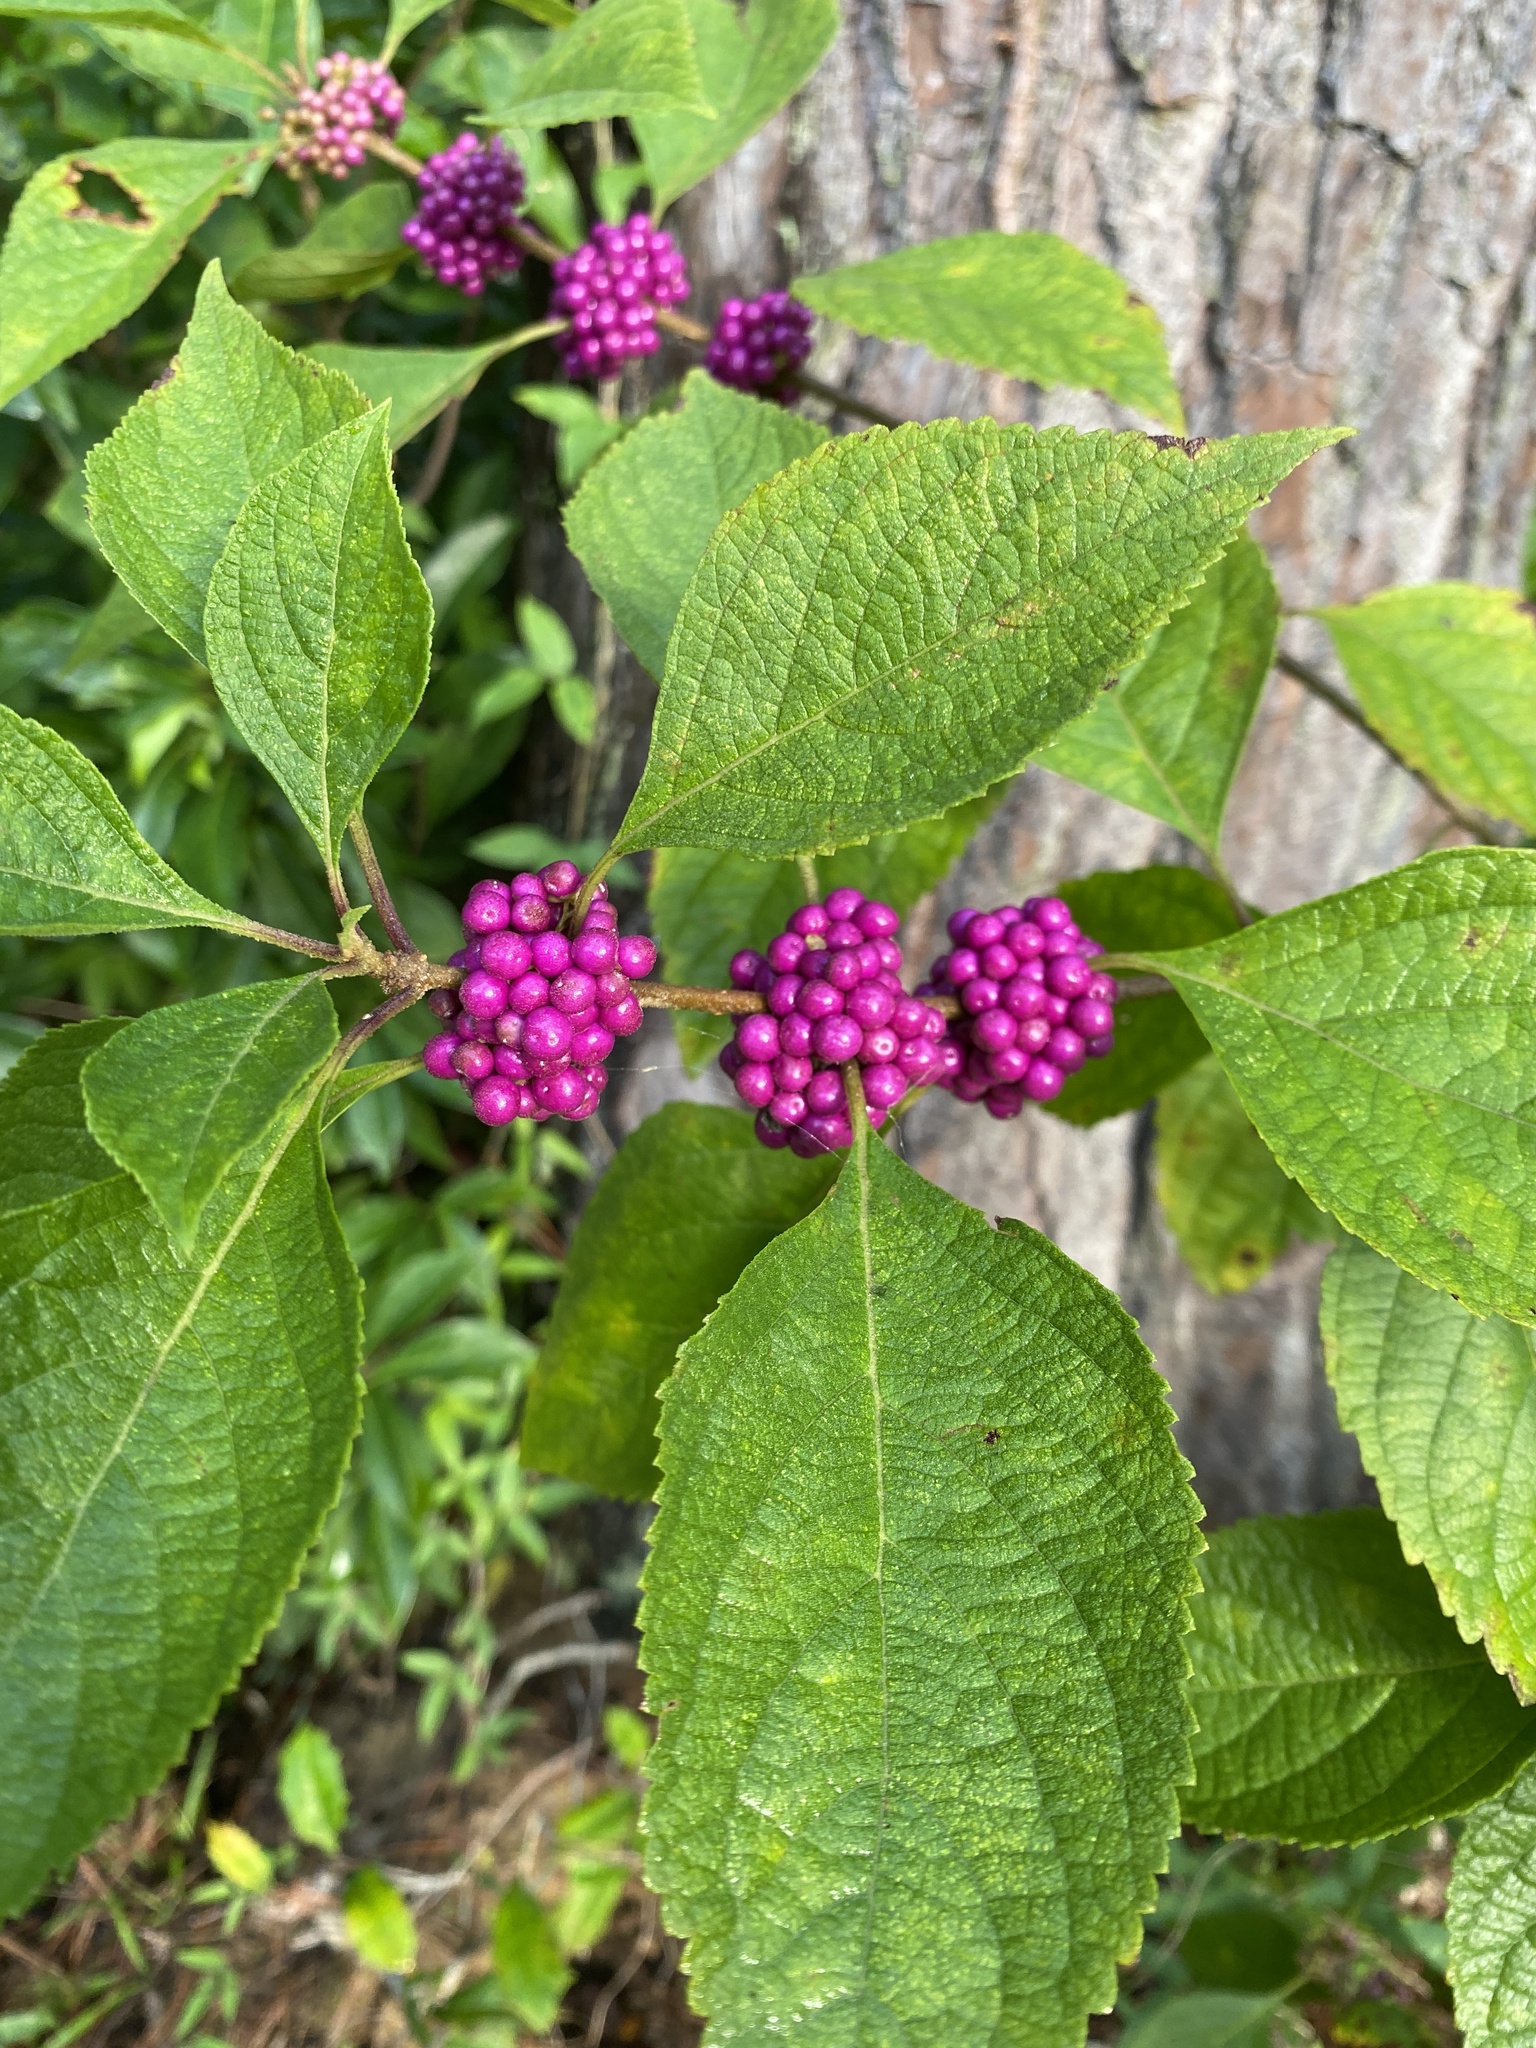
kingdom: Plantae
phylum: Tracheophyta
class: Magnoliopsida
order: Lamiales
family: Lamiaceae
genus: Callicarpa
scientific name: Callicarpa americana
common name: American beautyberry
